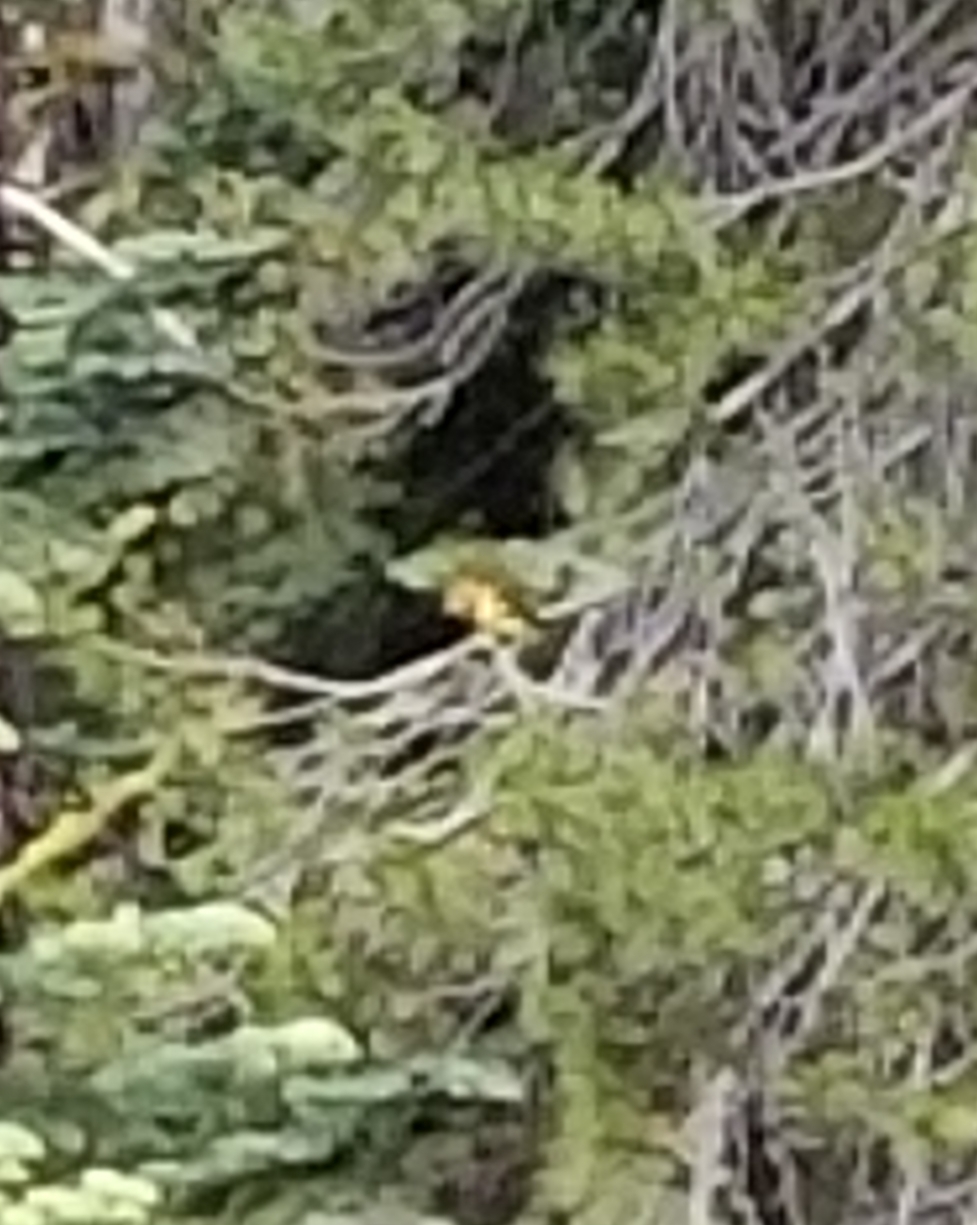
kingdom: Animalia
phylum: Chordata
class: Aves
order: Passeriformes
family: Cardinalidae
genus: Piranga
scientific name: Piranga ludoviciana
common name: Western tanager
